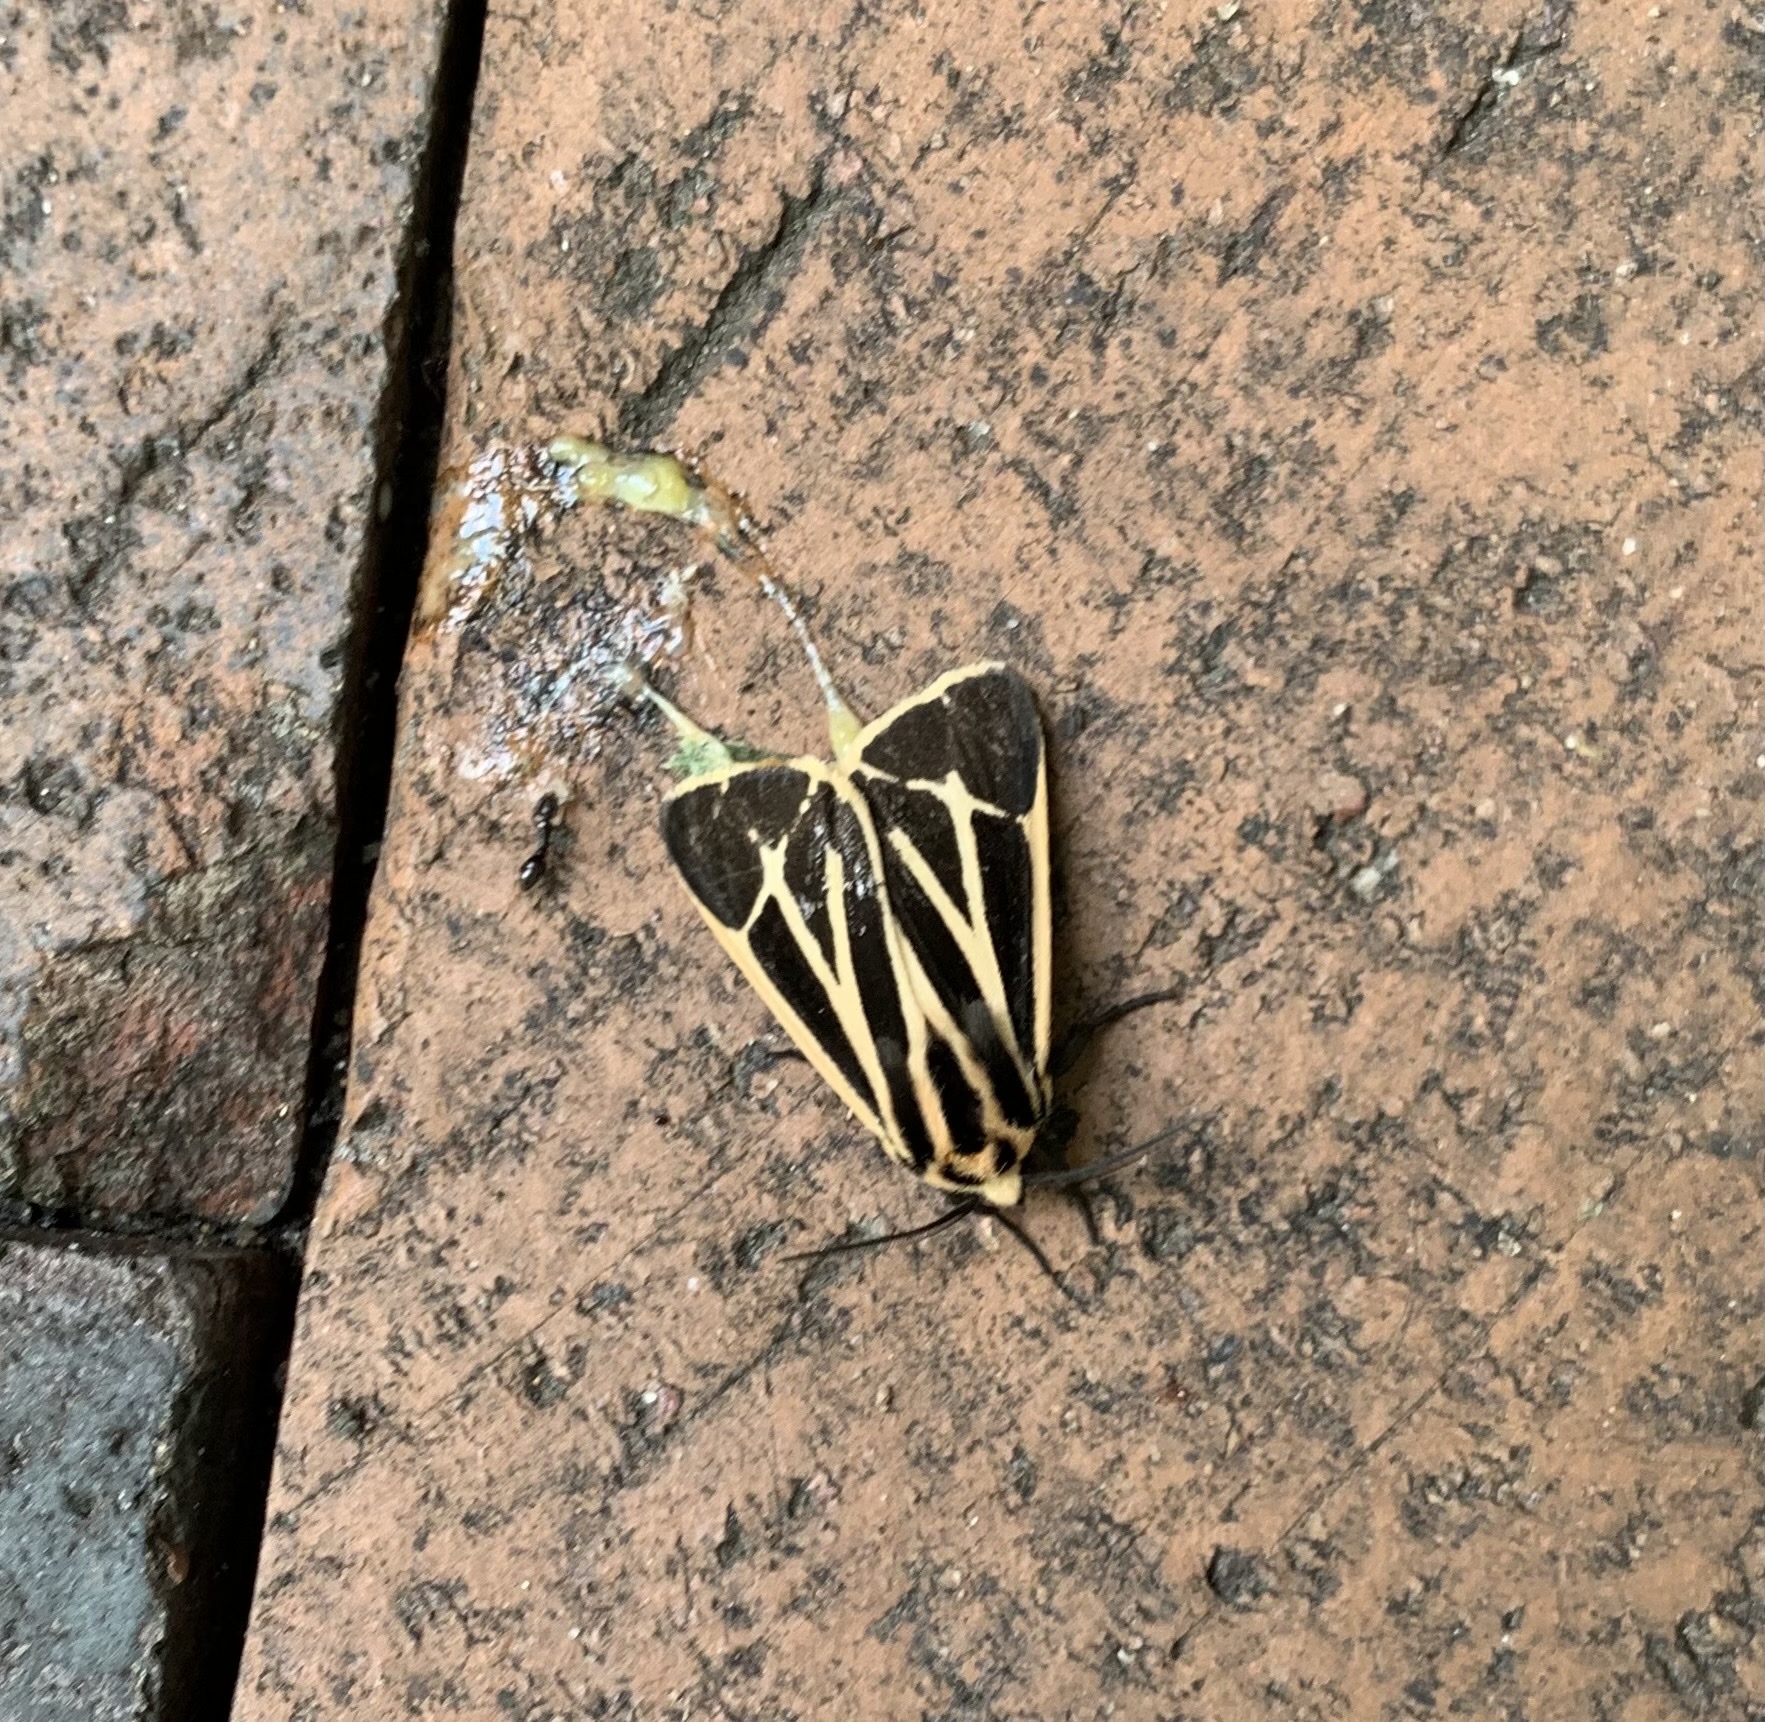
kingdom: Animalia
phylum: Arthropoda
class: Insecta
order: Lepidoptera
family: Erebidae
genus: Apantesis
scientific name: Apantesis phalerata
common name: Harnessed tiger moth
